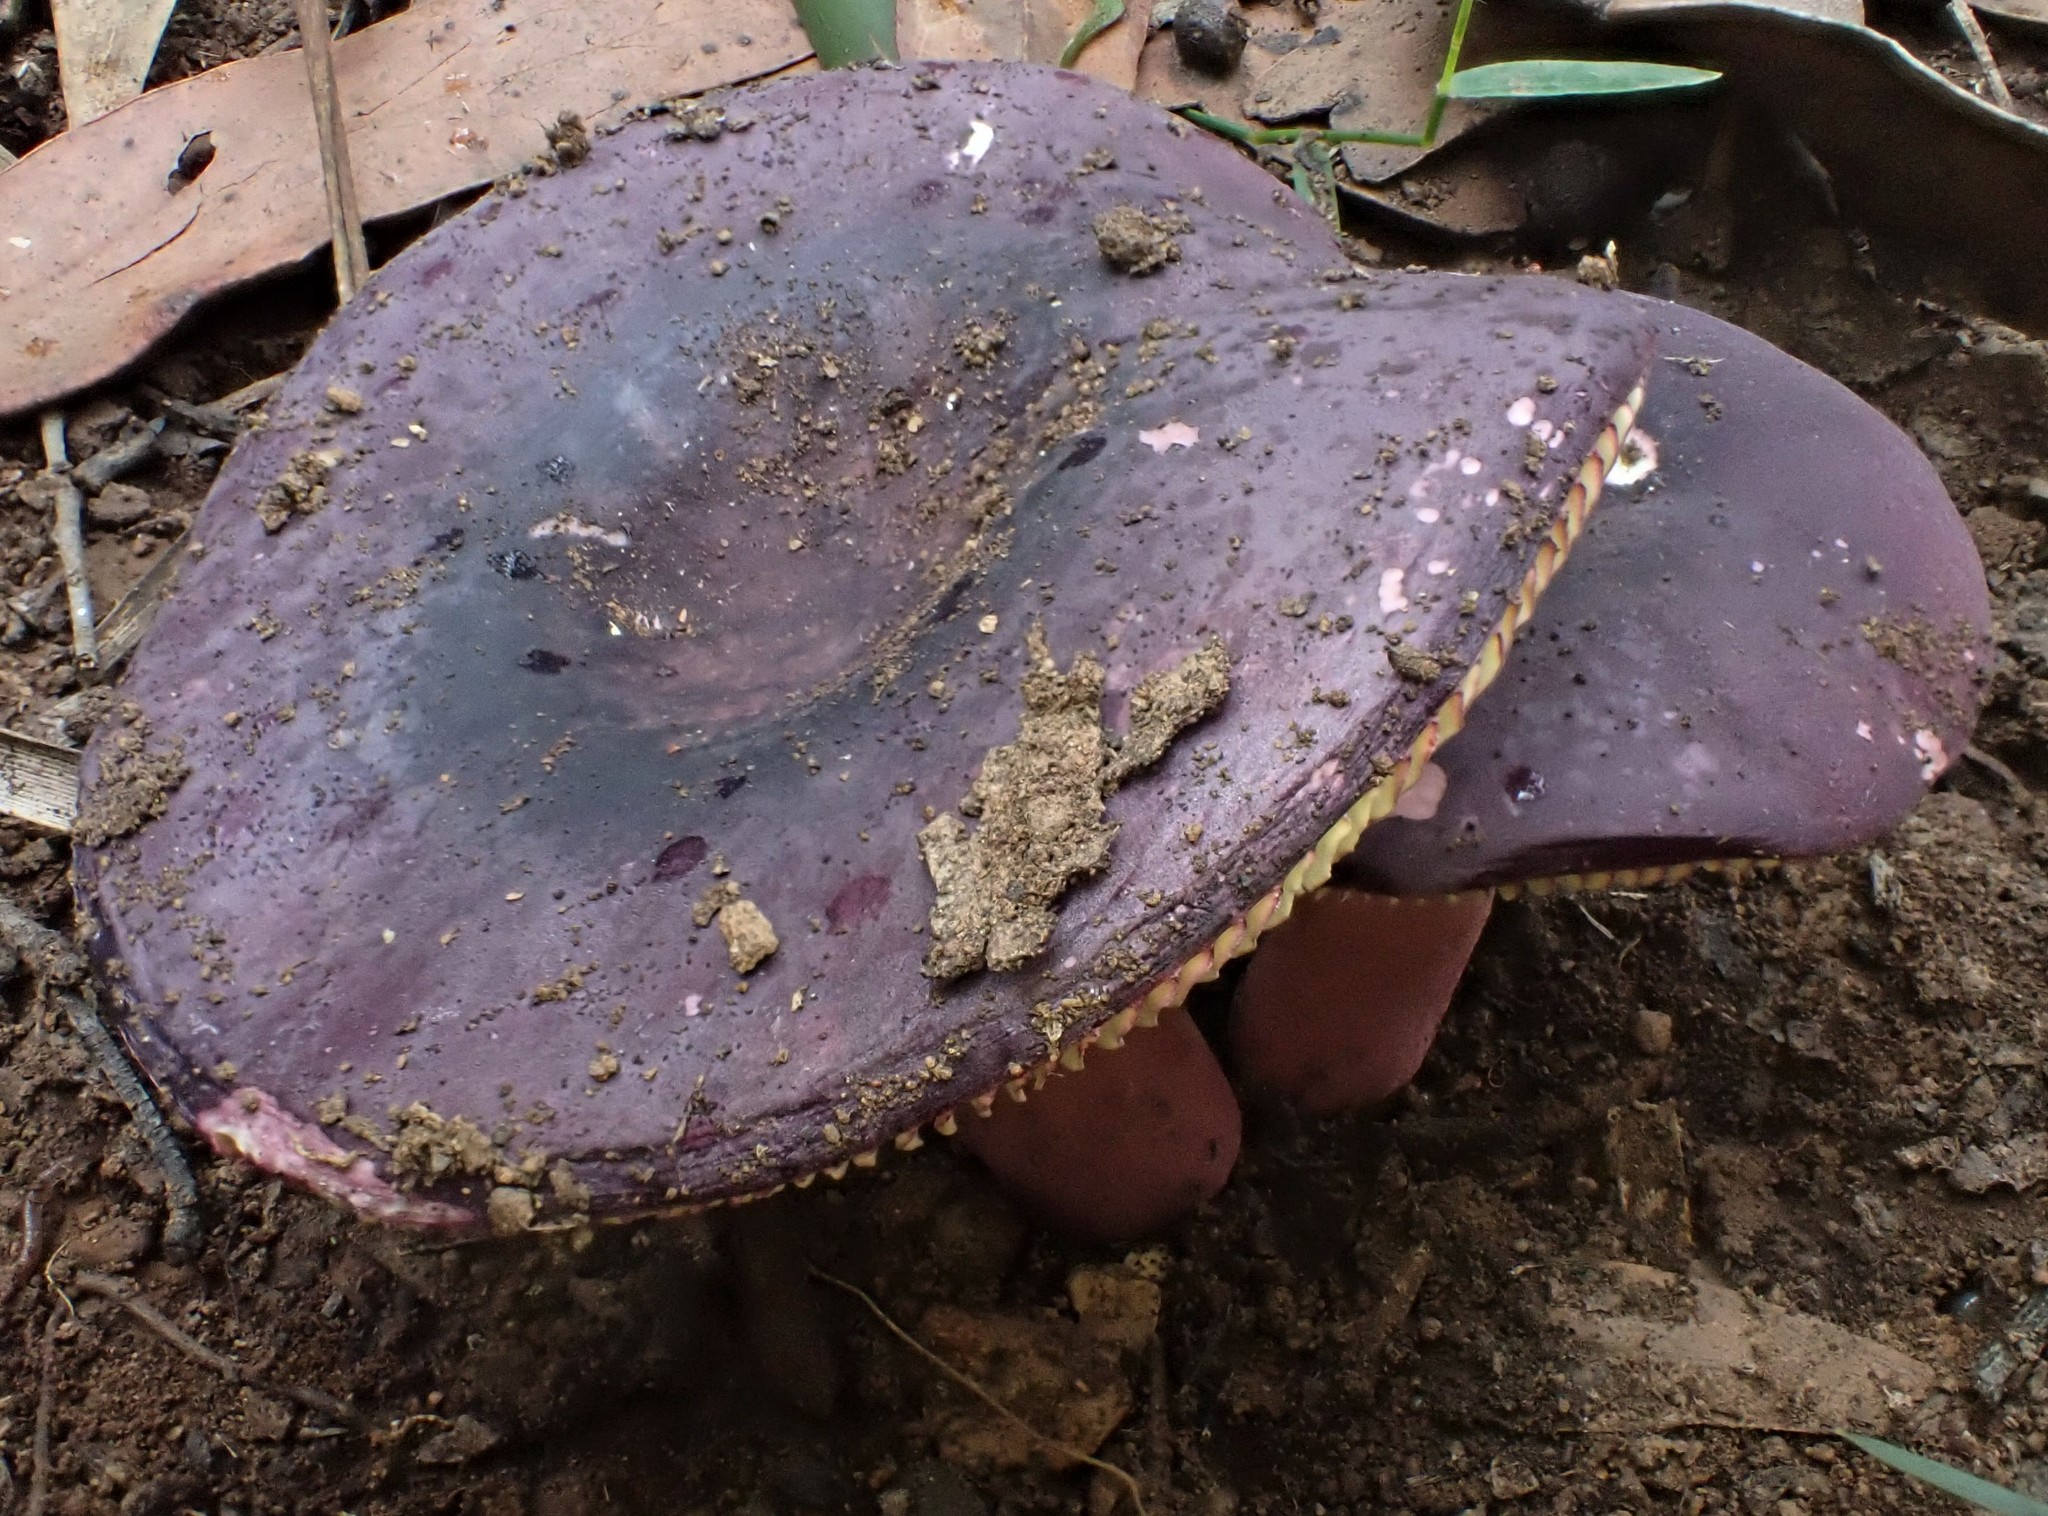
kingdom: Fungi
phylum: Basidiomycota
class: Agaricomycetes
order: Russulales
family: Russulaceae
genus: Russula
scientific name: Russula lenkunya
